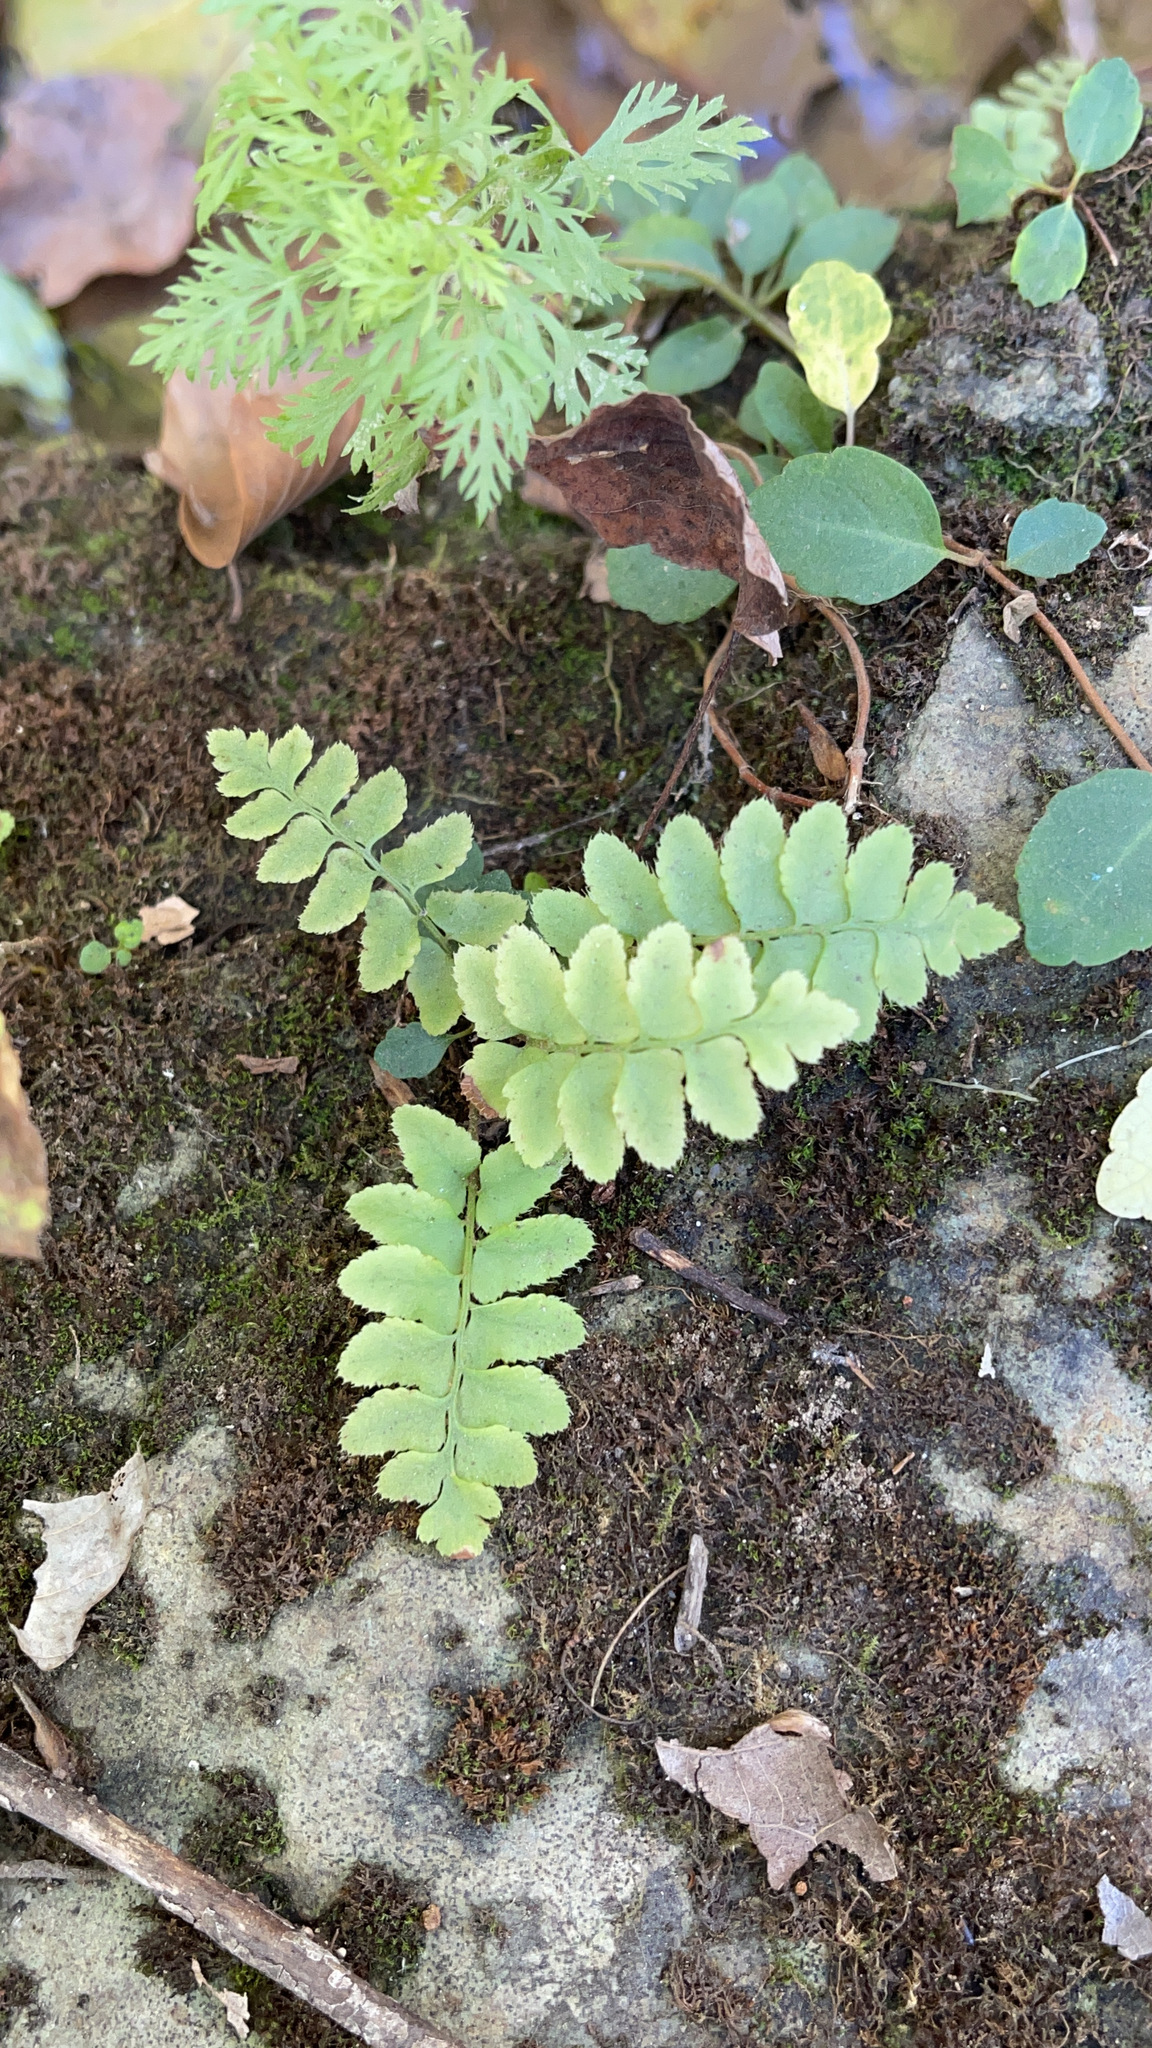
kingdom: Plantae
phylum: Tracheophyta
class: Polypodiopsida
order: Polypodiales
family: Dryopteridaceae
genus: Polystichum
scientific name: Polystichum acrostichoides
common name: Christmas fern
